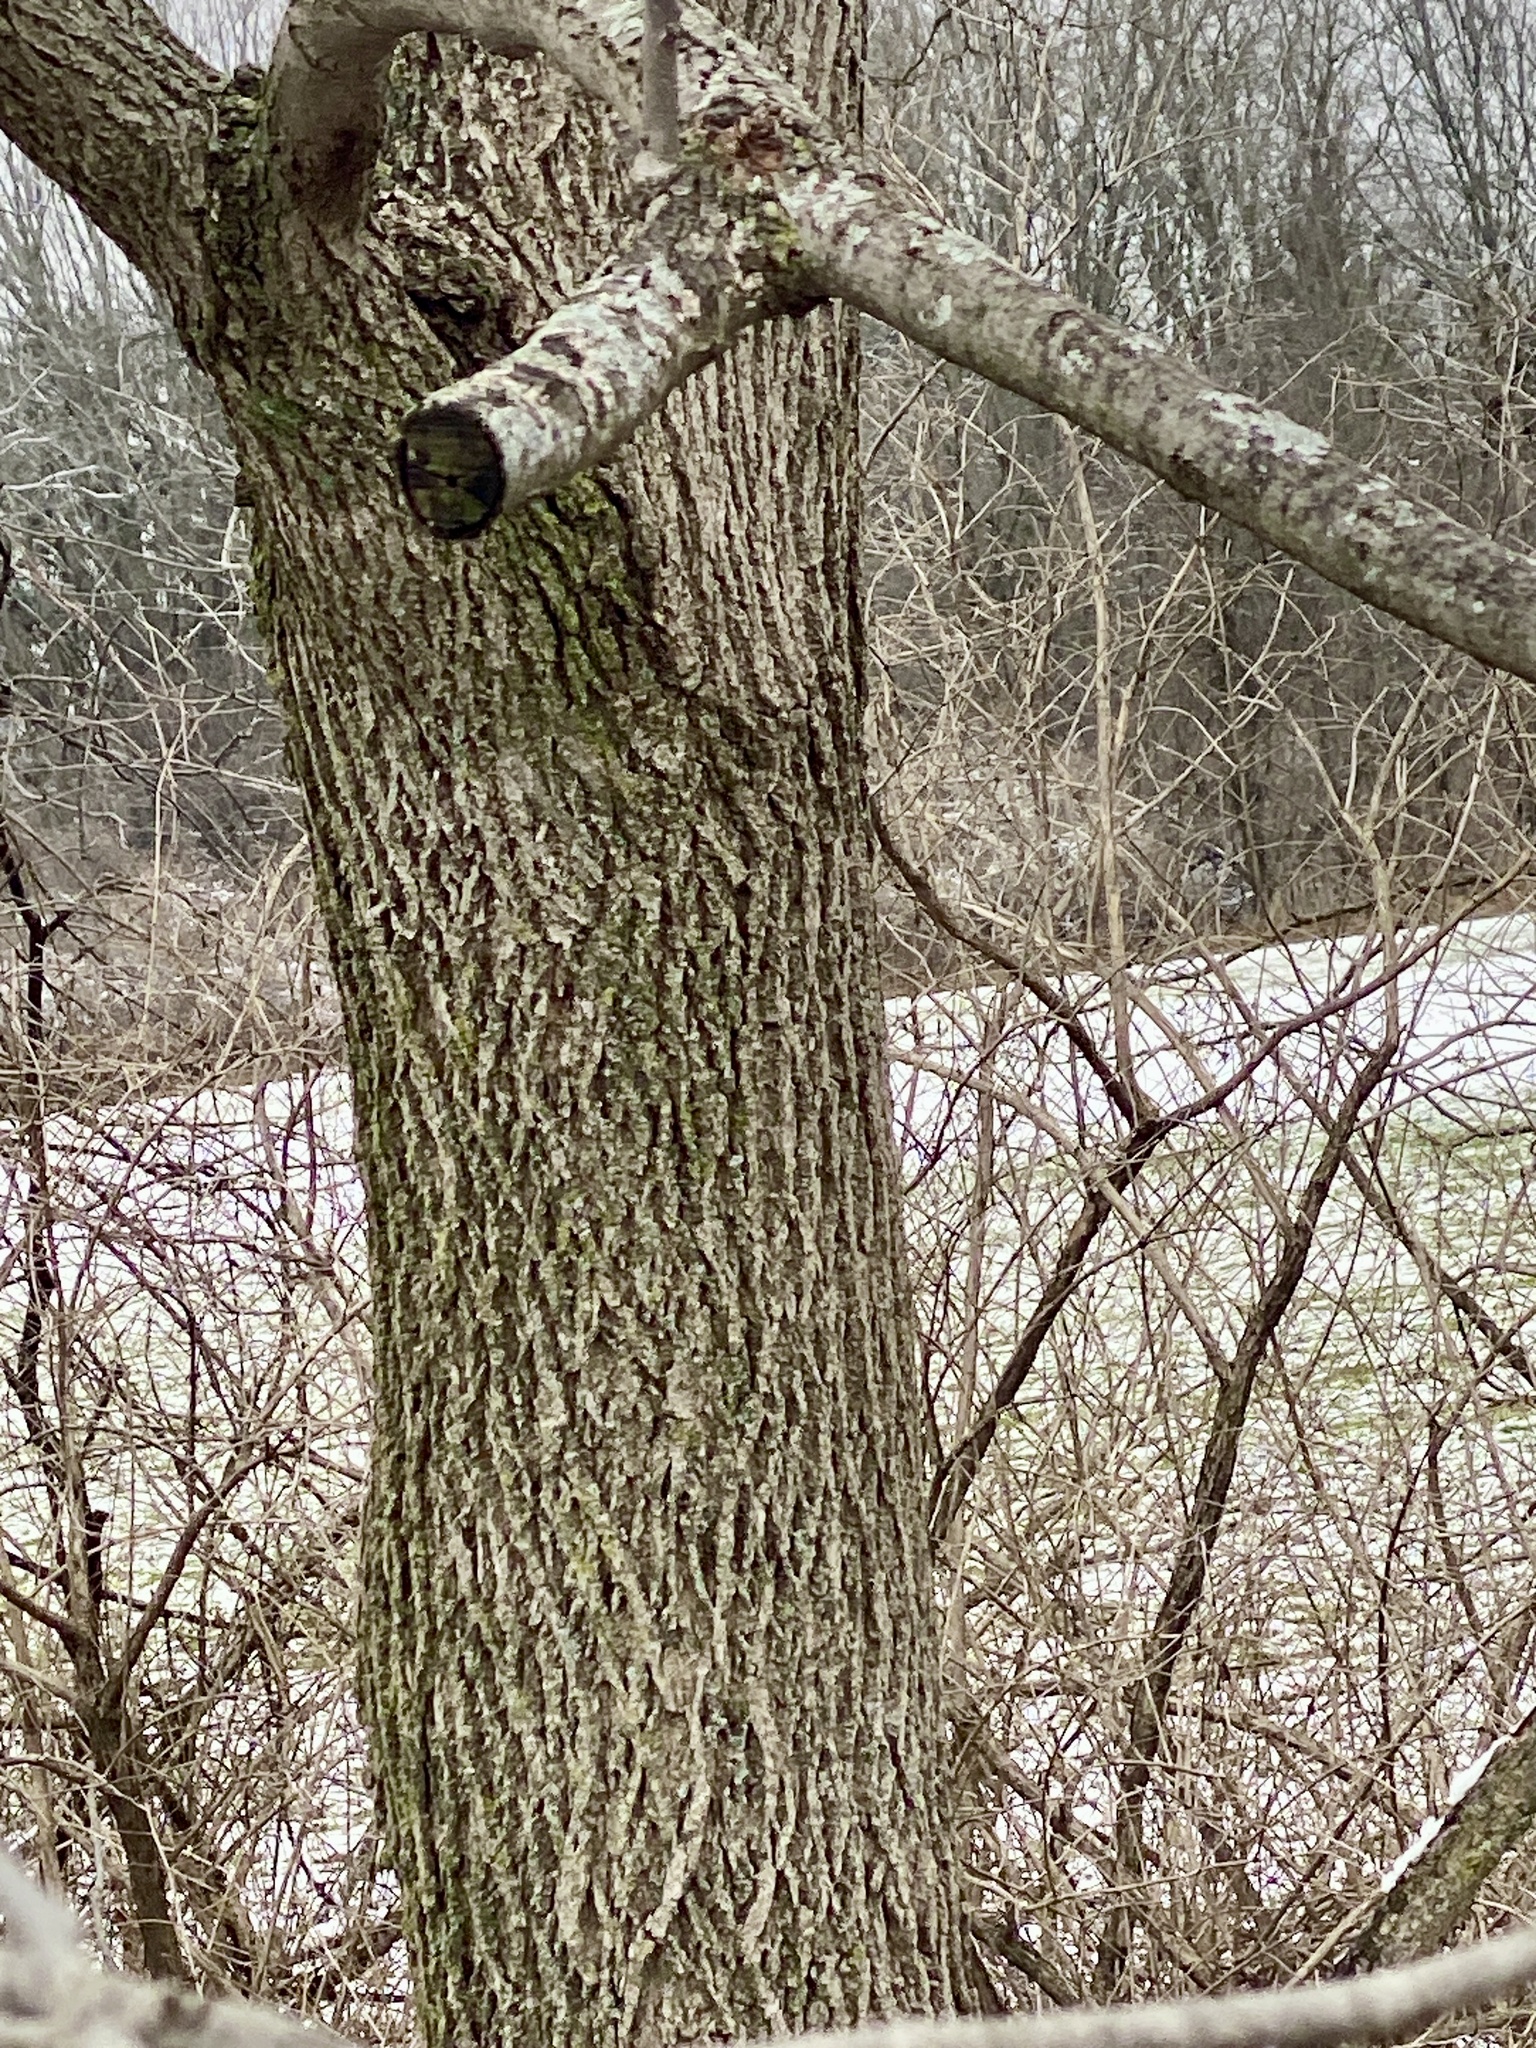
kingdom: Plantae
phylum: Tracheophyta
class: Magnoliopsida
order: Fagales
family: Juglandaceae
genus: Juglans
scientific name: Juglans nigra
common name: Black walnut
